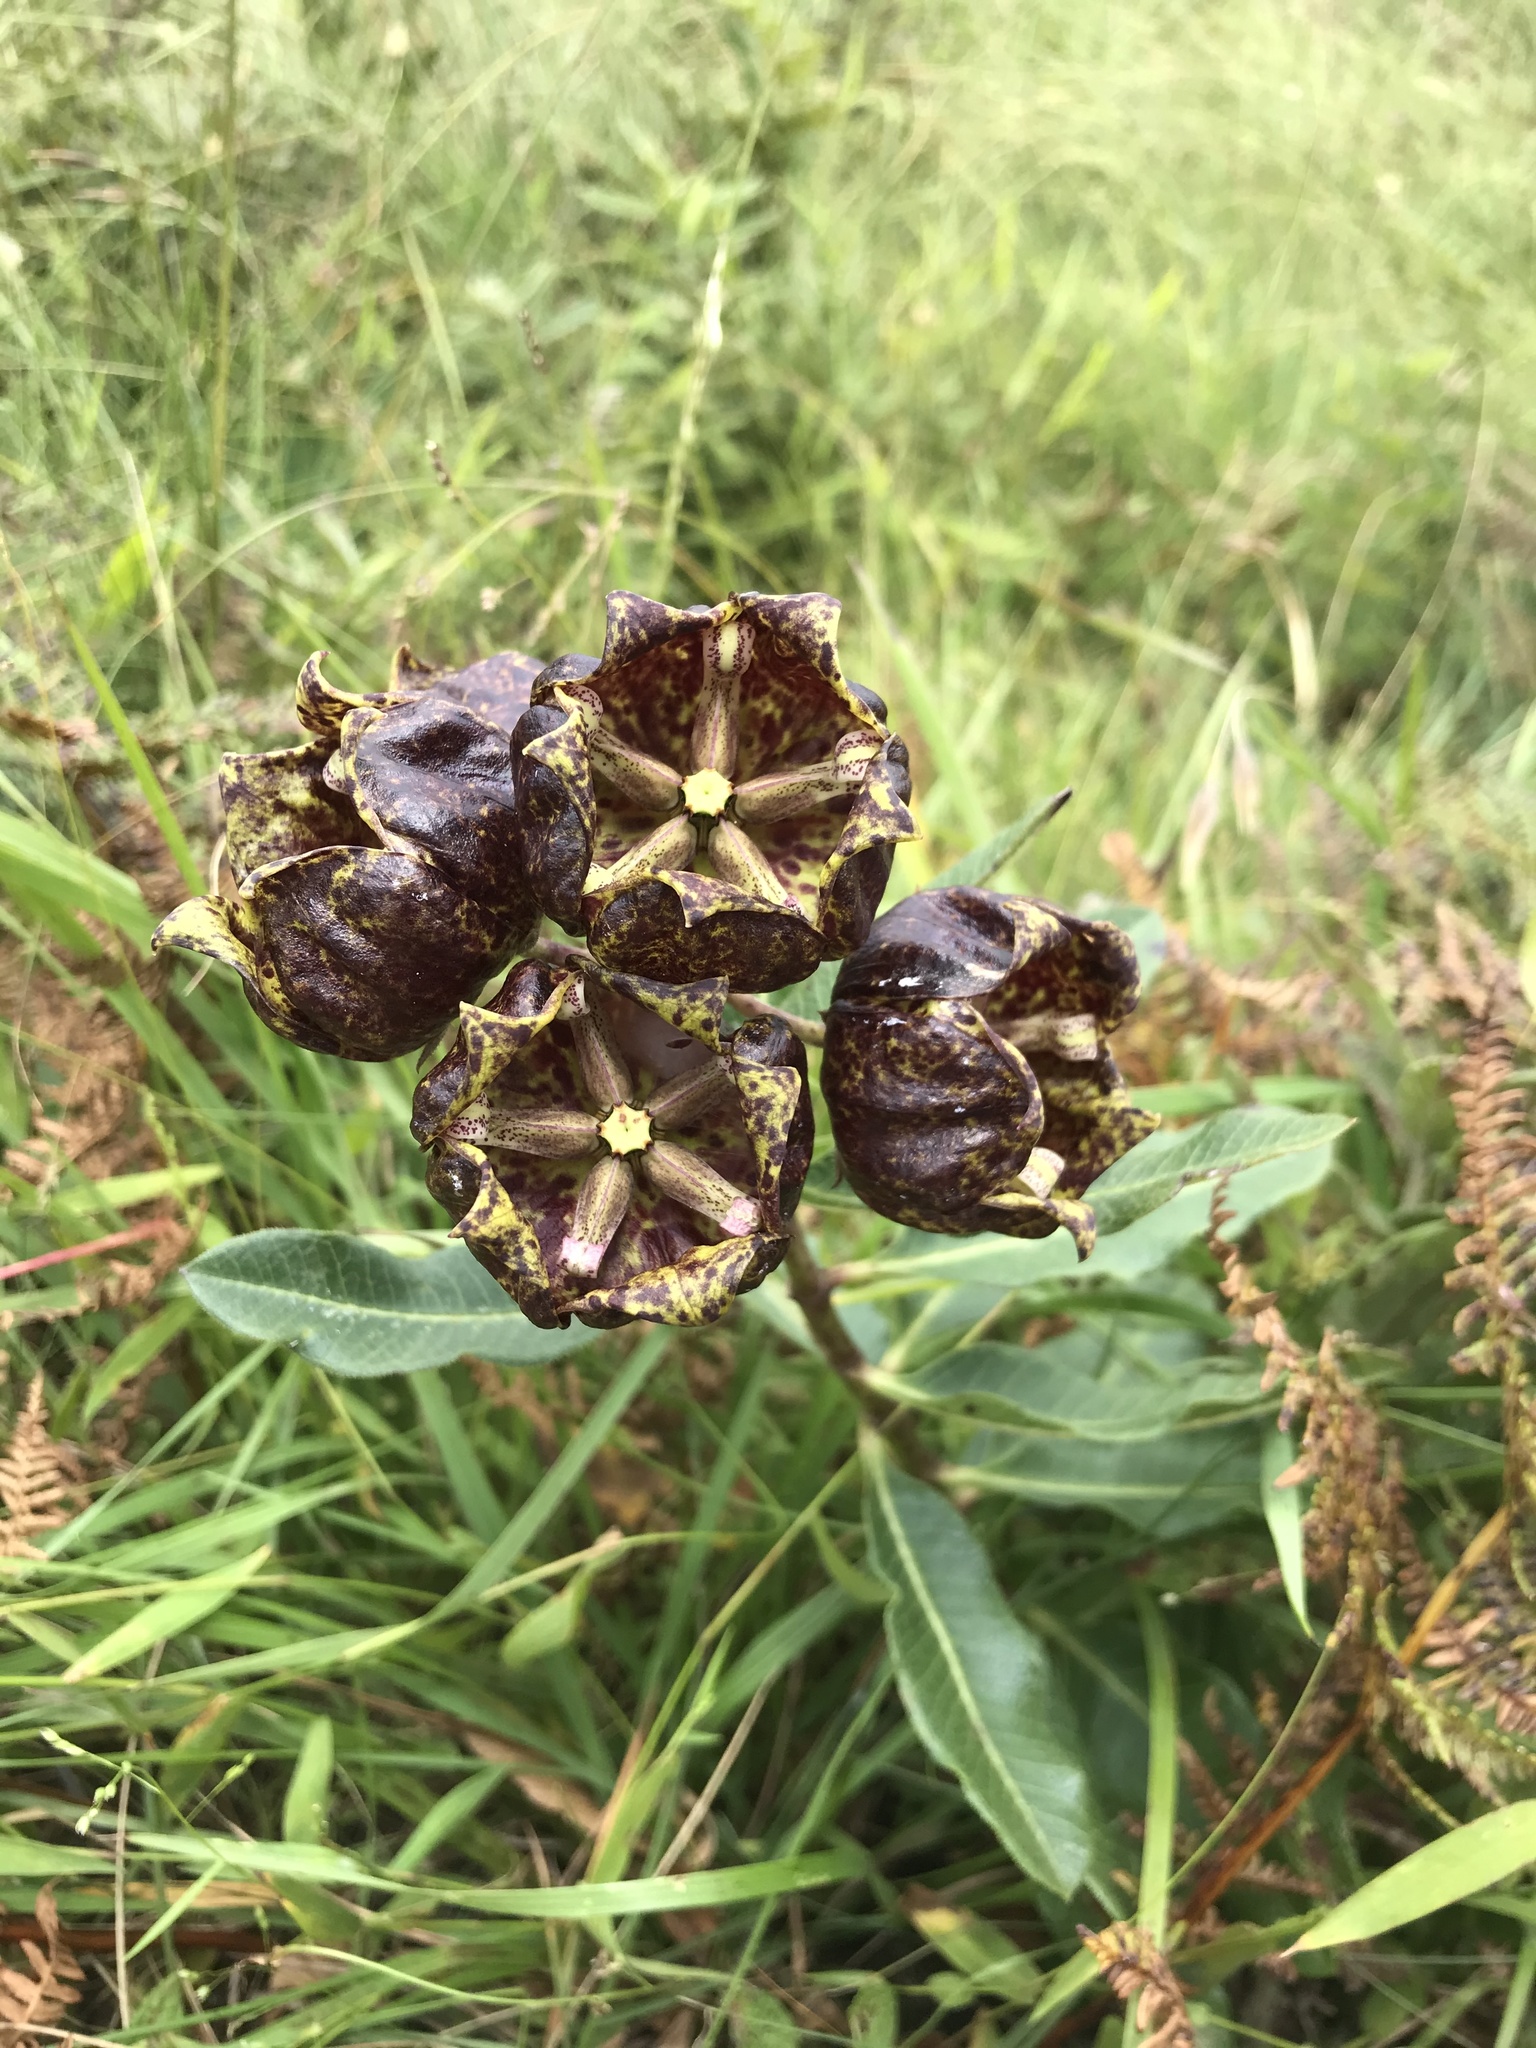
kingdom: Plantae
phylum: Tracheophyta
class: Magnoliopsida
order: Gentianales
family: Apocynaceae
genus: Pachycarpus
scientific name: Pachycarpus grandiflorus
